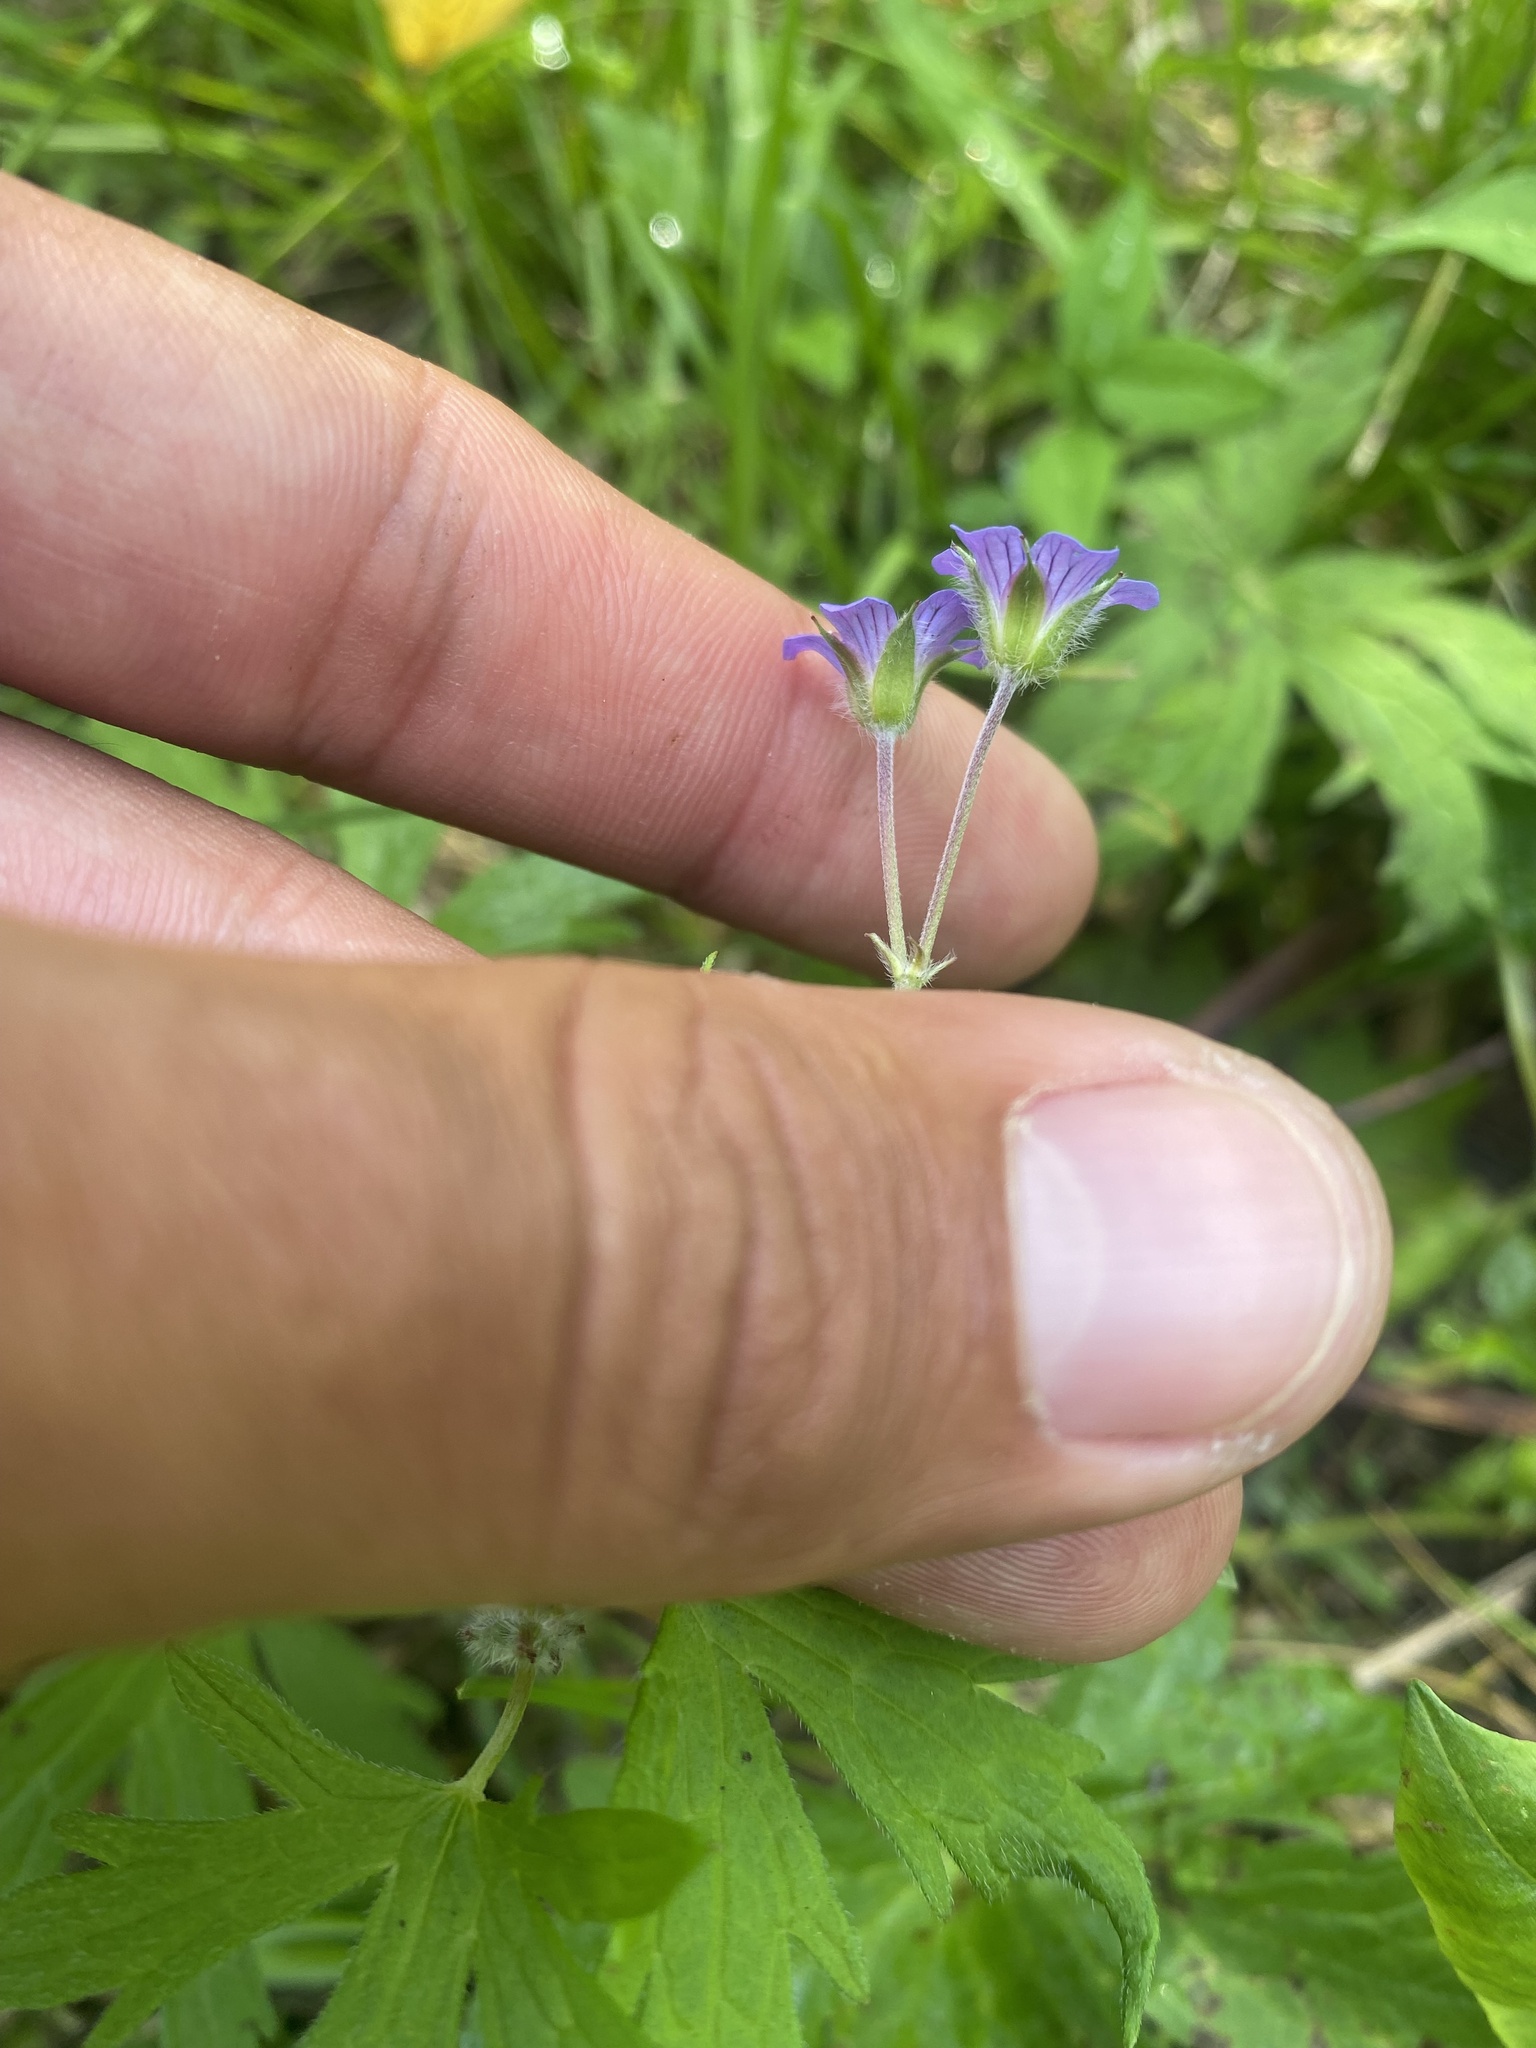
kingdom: Plantae
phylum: Tracheophyta
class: Magnoliopsida
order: Geraniales
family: Geraniaceae
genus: Geranium
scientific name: Geranium pseudosibiricum
